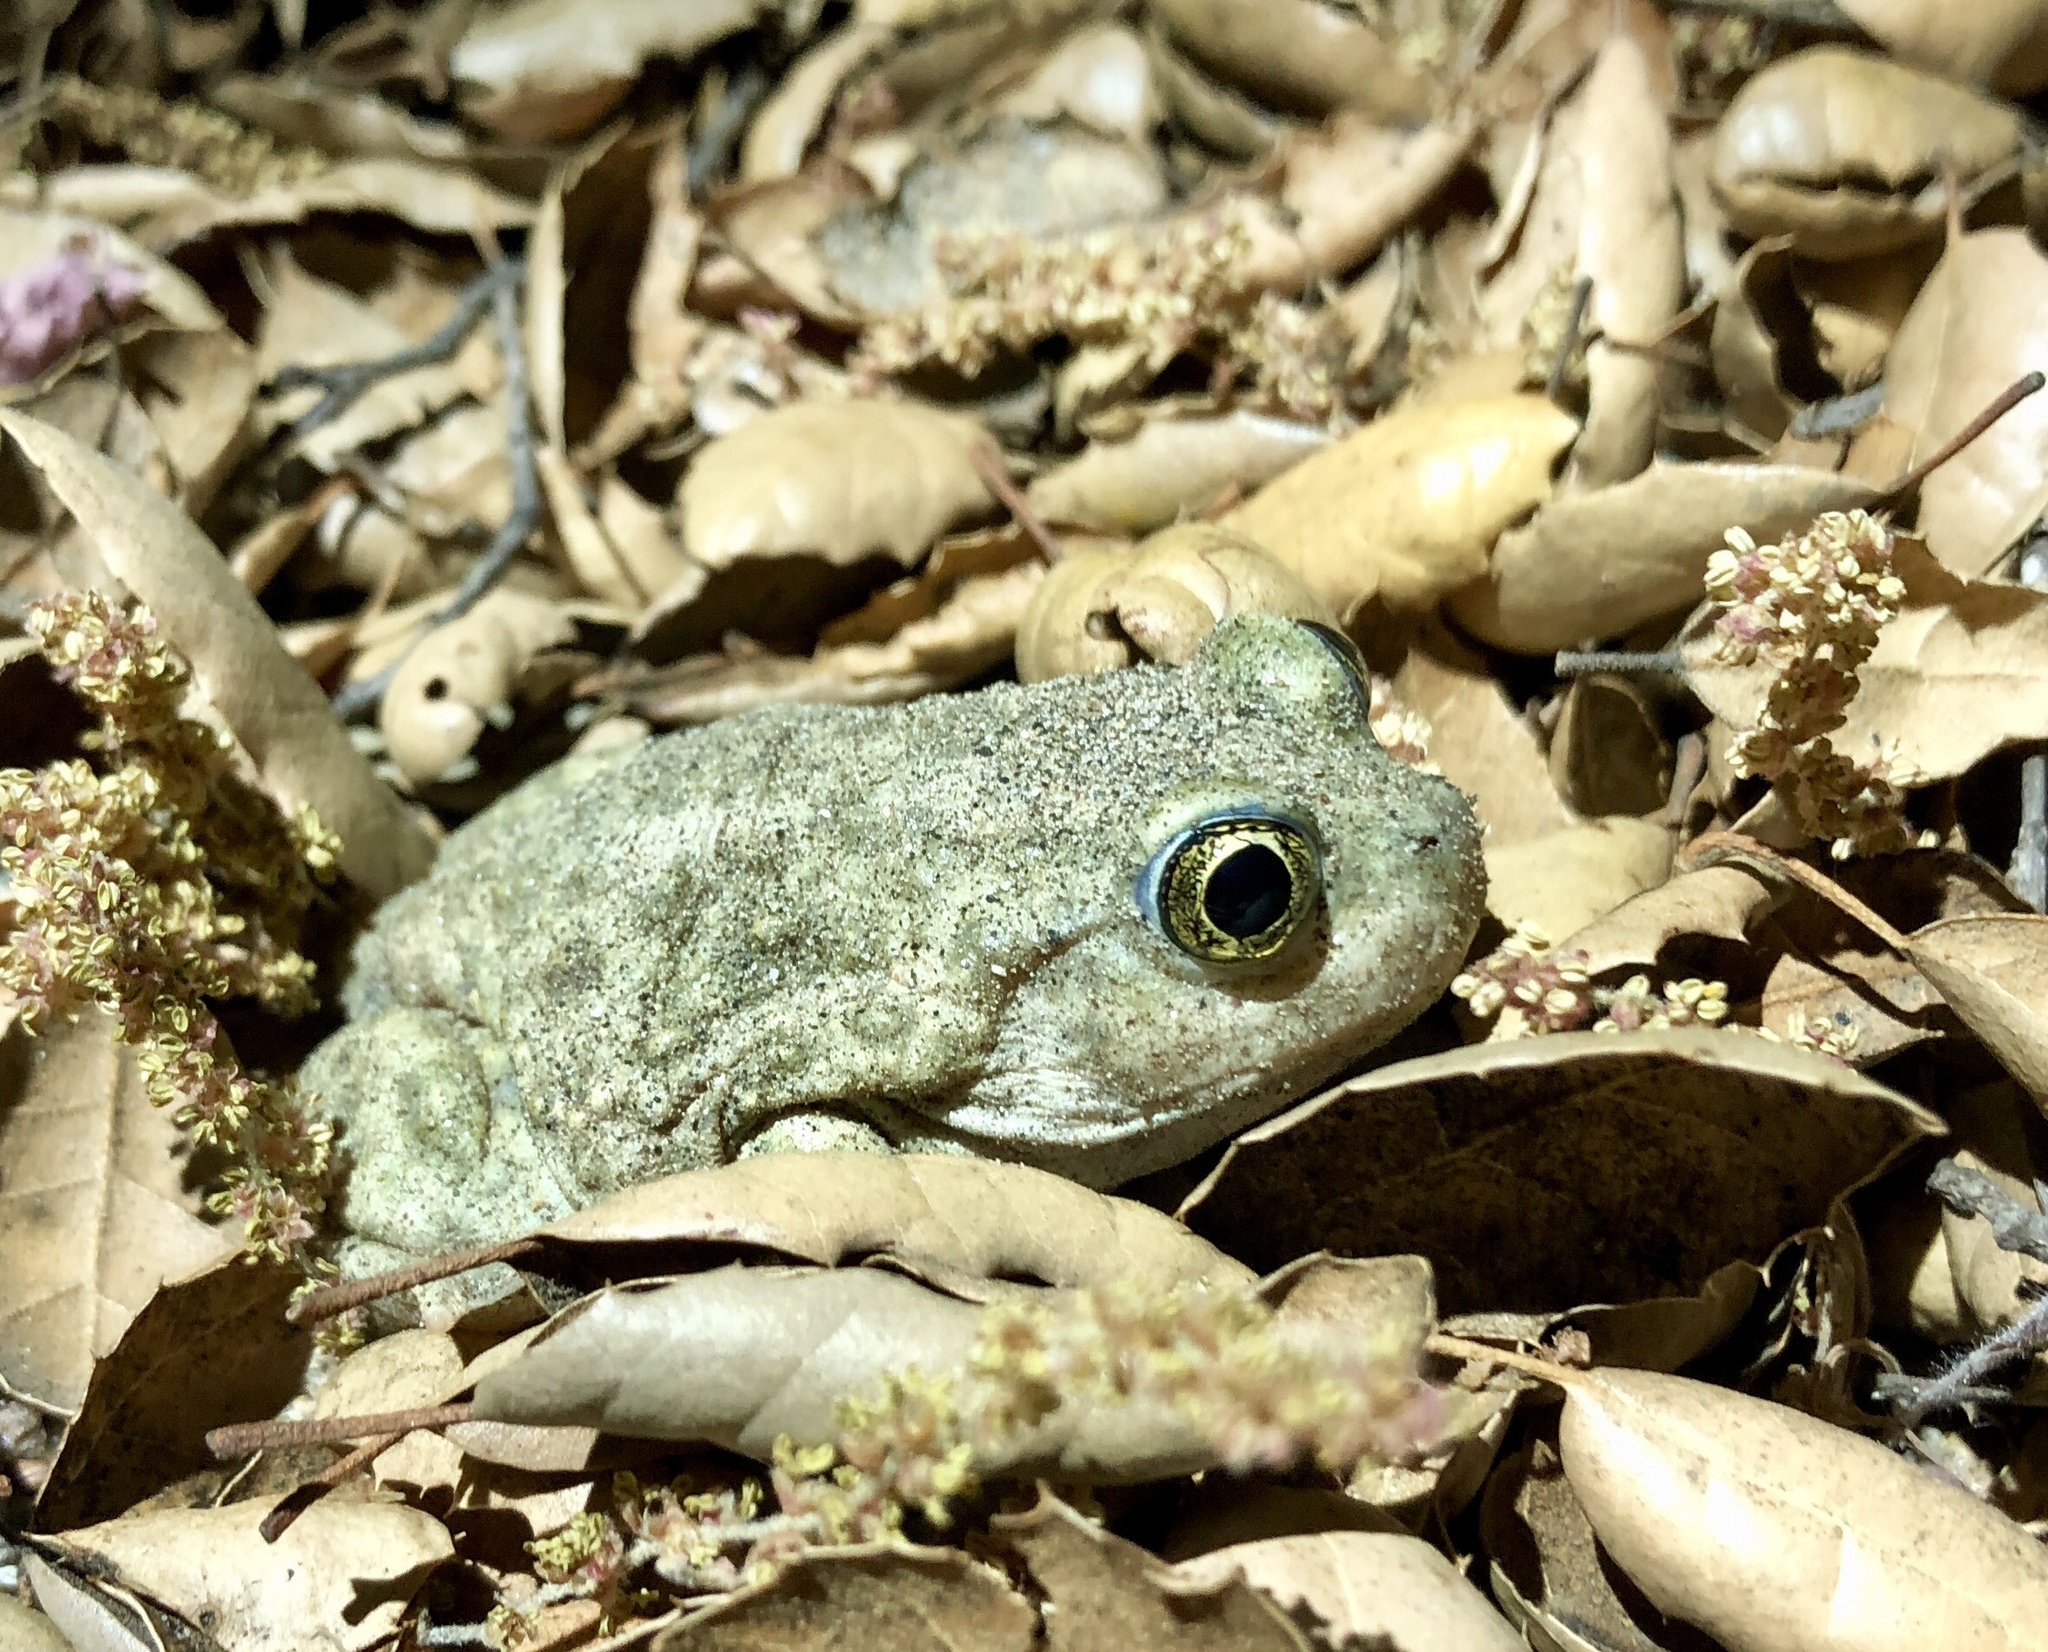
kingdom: Animalia
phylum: Chordata
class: Amphibia
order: Anura
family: Scaphiopodidae
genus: Spea
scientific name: Spea hammondii
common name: Western spadefoot toad
